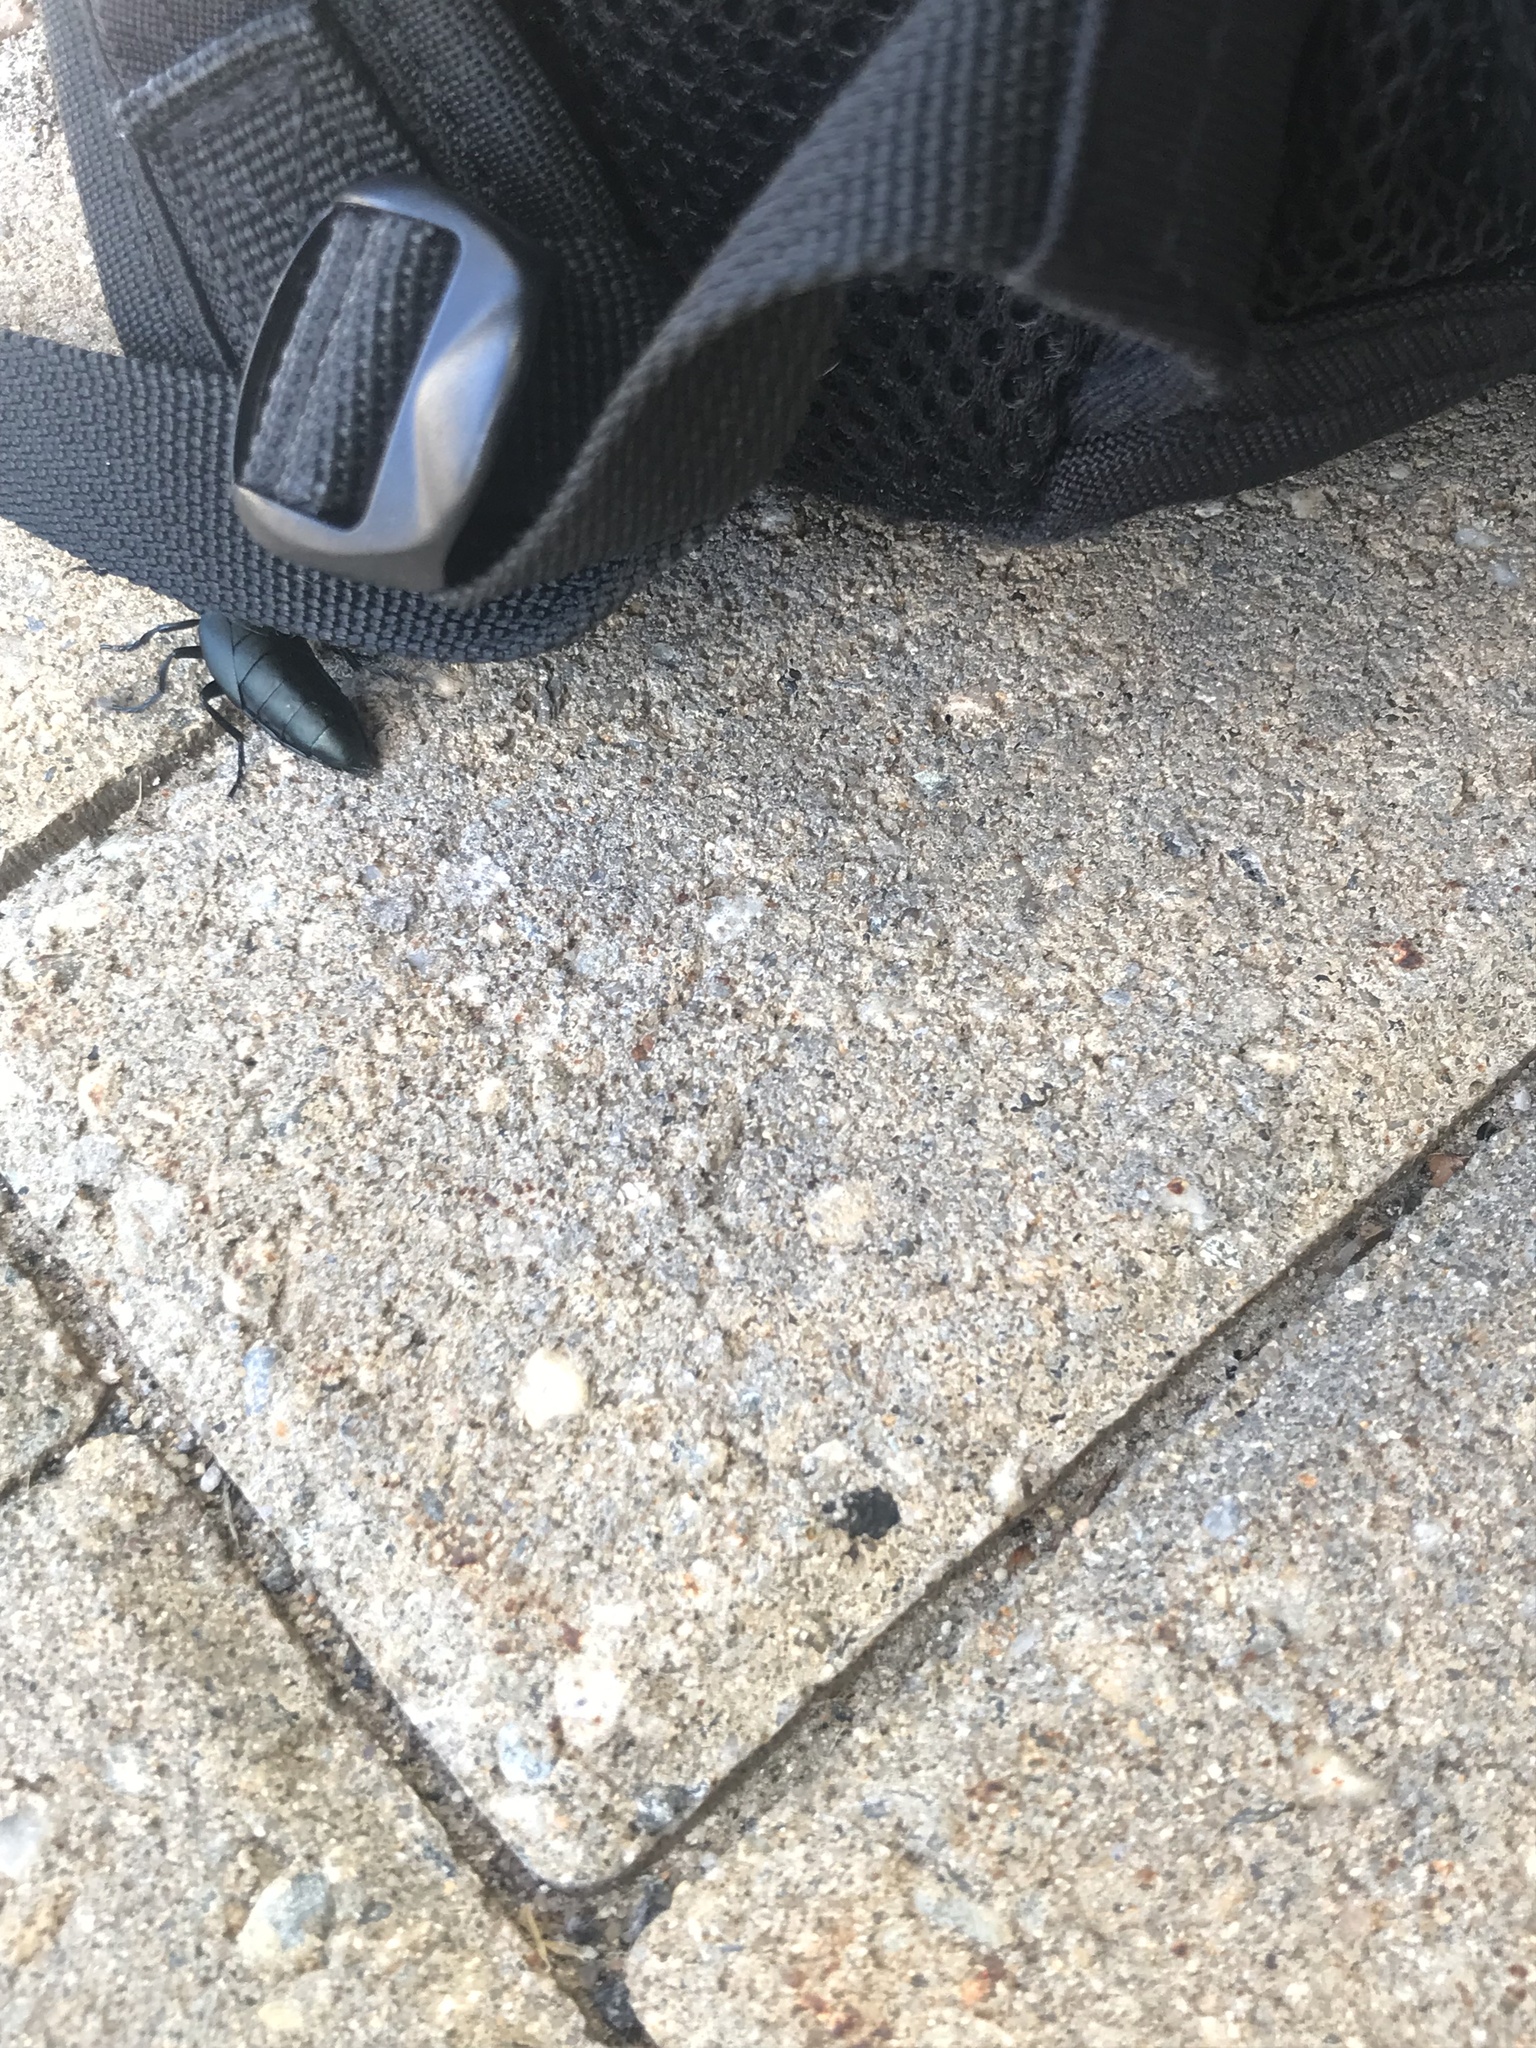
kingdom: Animalia
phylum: Arthropoda
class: Insecta
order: Coleoptera
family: Meloidae
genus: Meloe
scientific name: Meloe campanicollis
